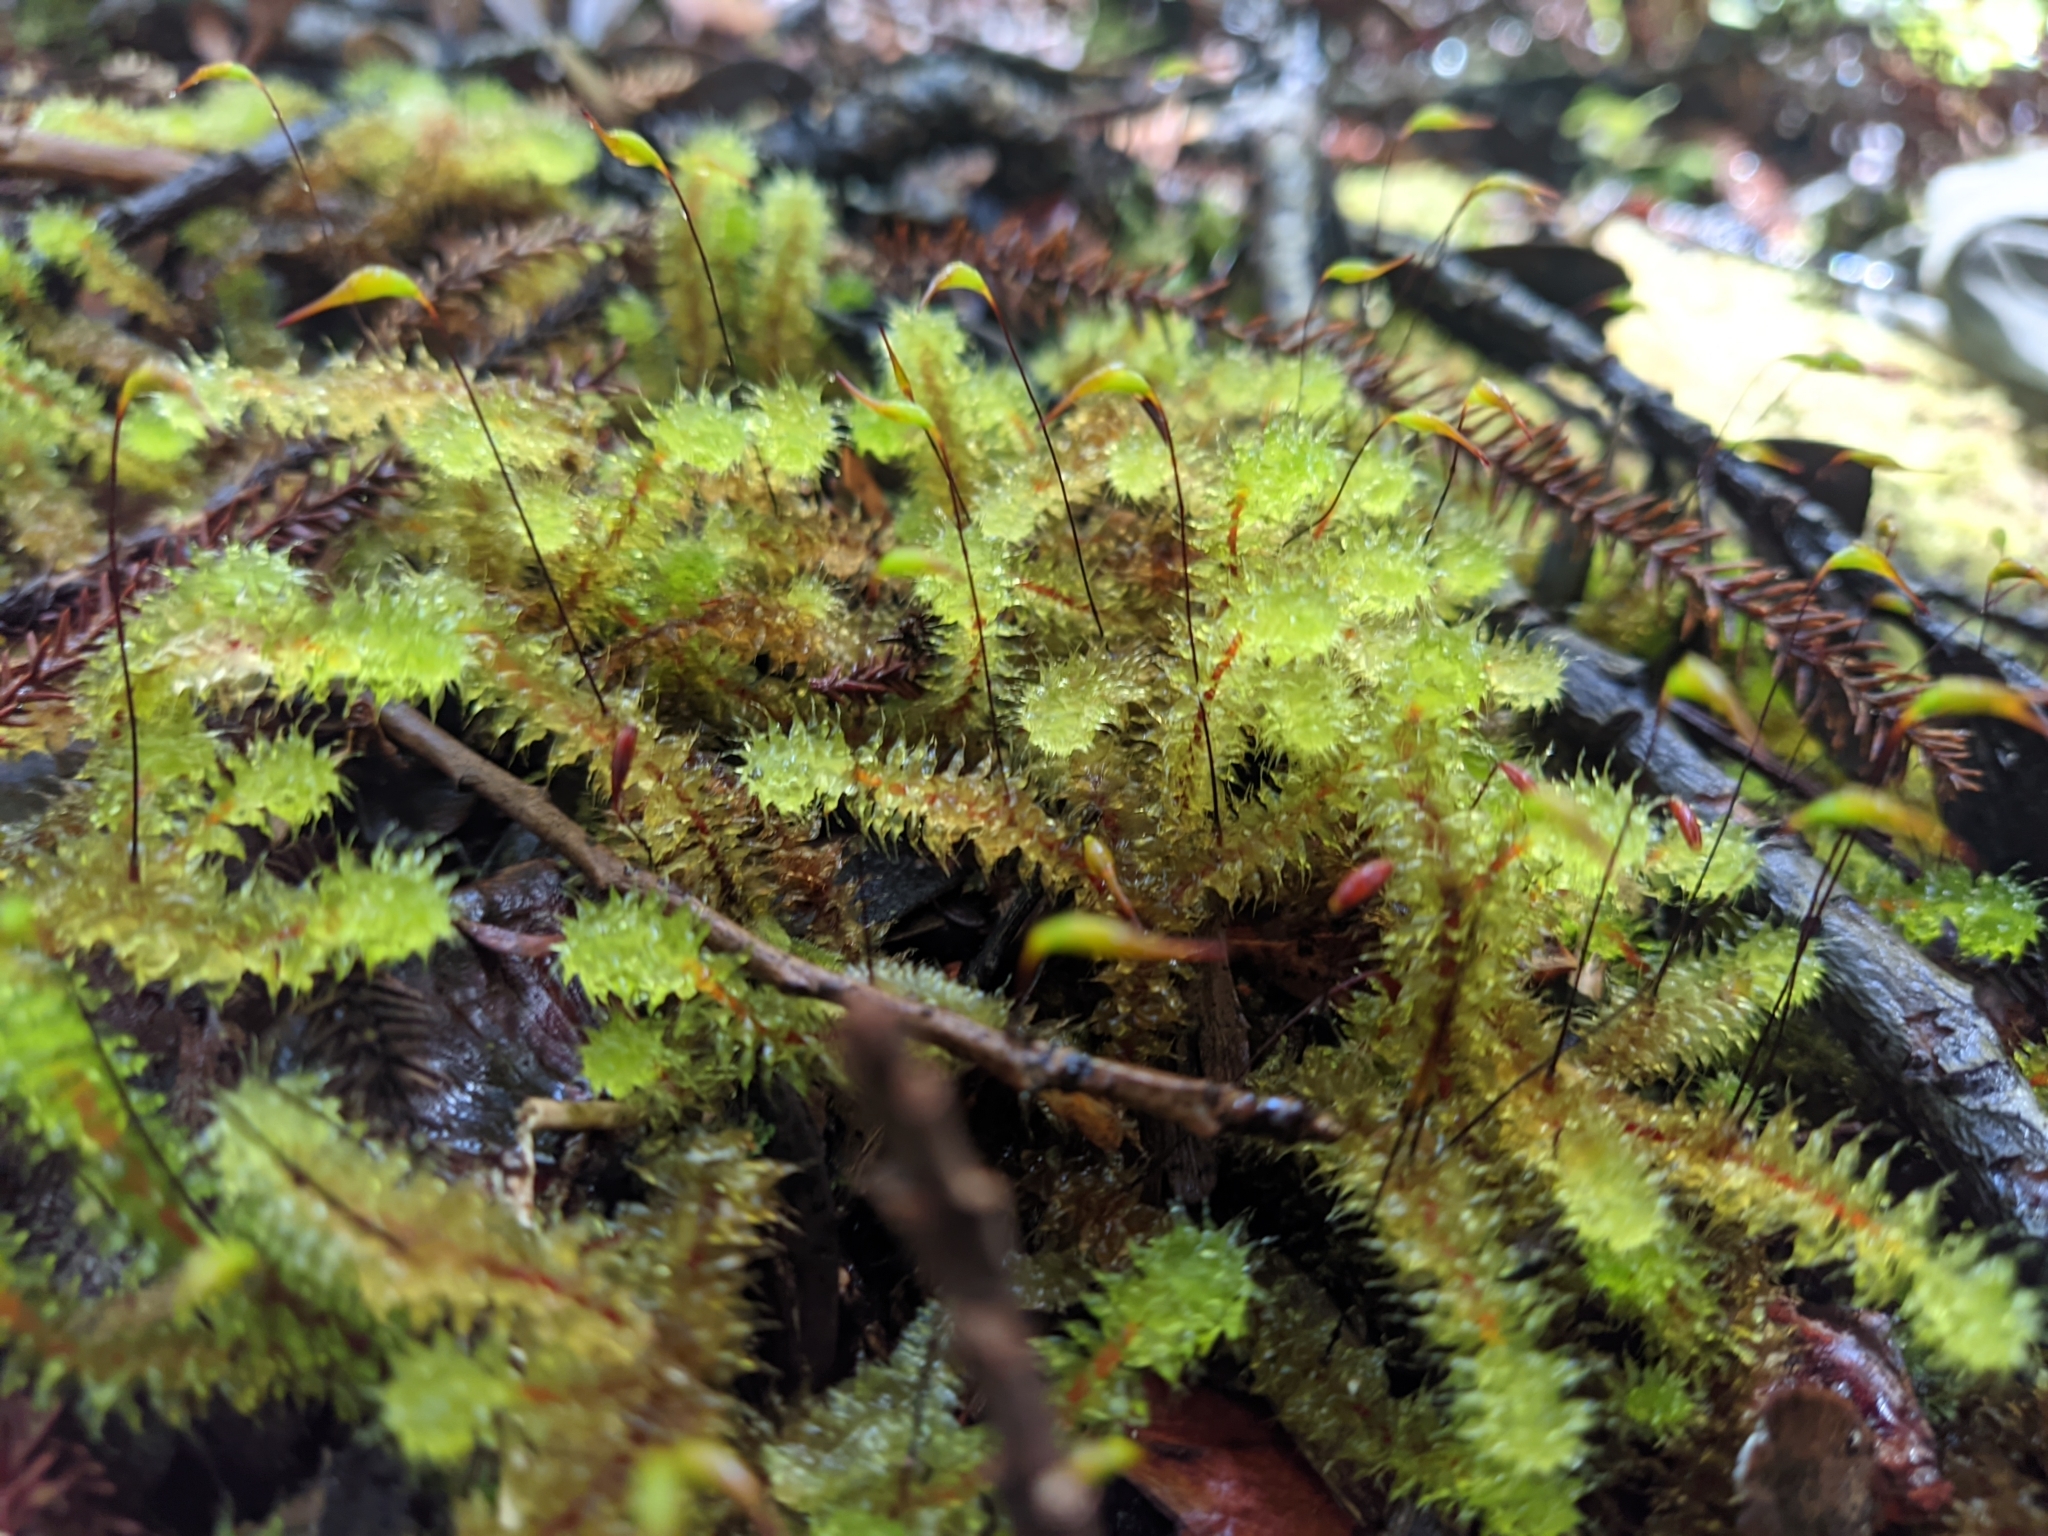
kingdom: Plantae
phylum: Bryophyta
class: Bryopsida
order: Ptychomniales
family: Ptychomniaceae
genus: Ptychomnion
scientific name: Ptychomnion aciculare
